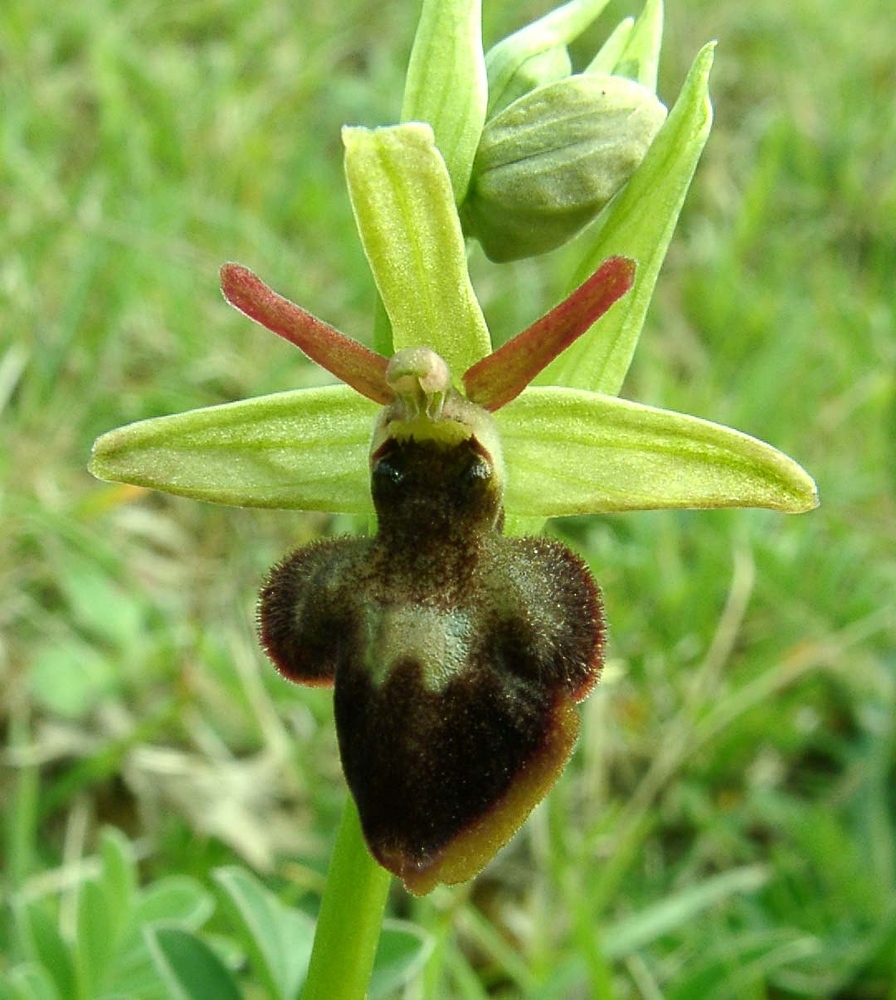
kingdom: Plantae
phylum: Tracheophyta
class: Liliopsida
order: Asparagales
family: Orchidaceae
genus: Ophrys
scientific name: Ophrys hybrida
